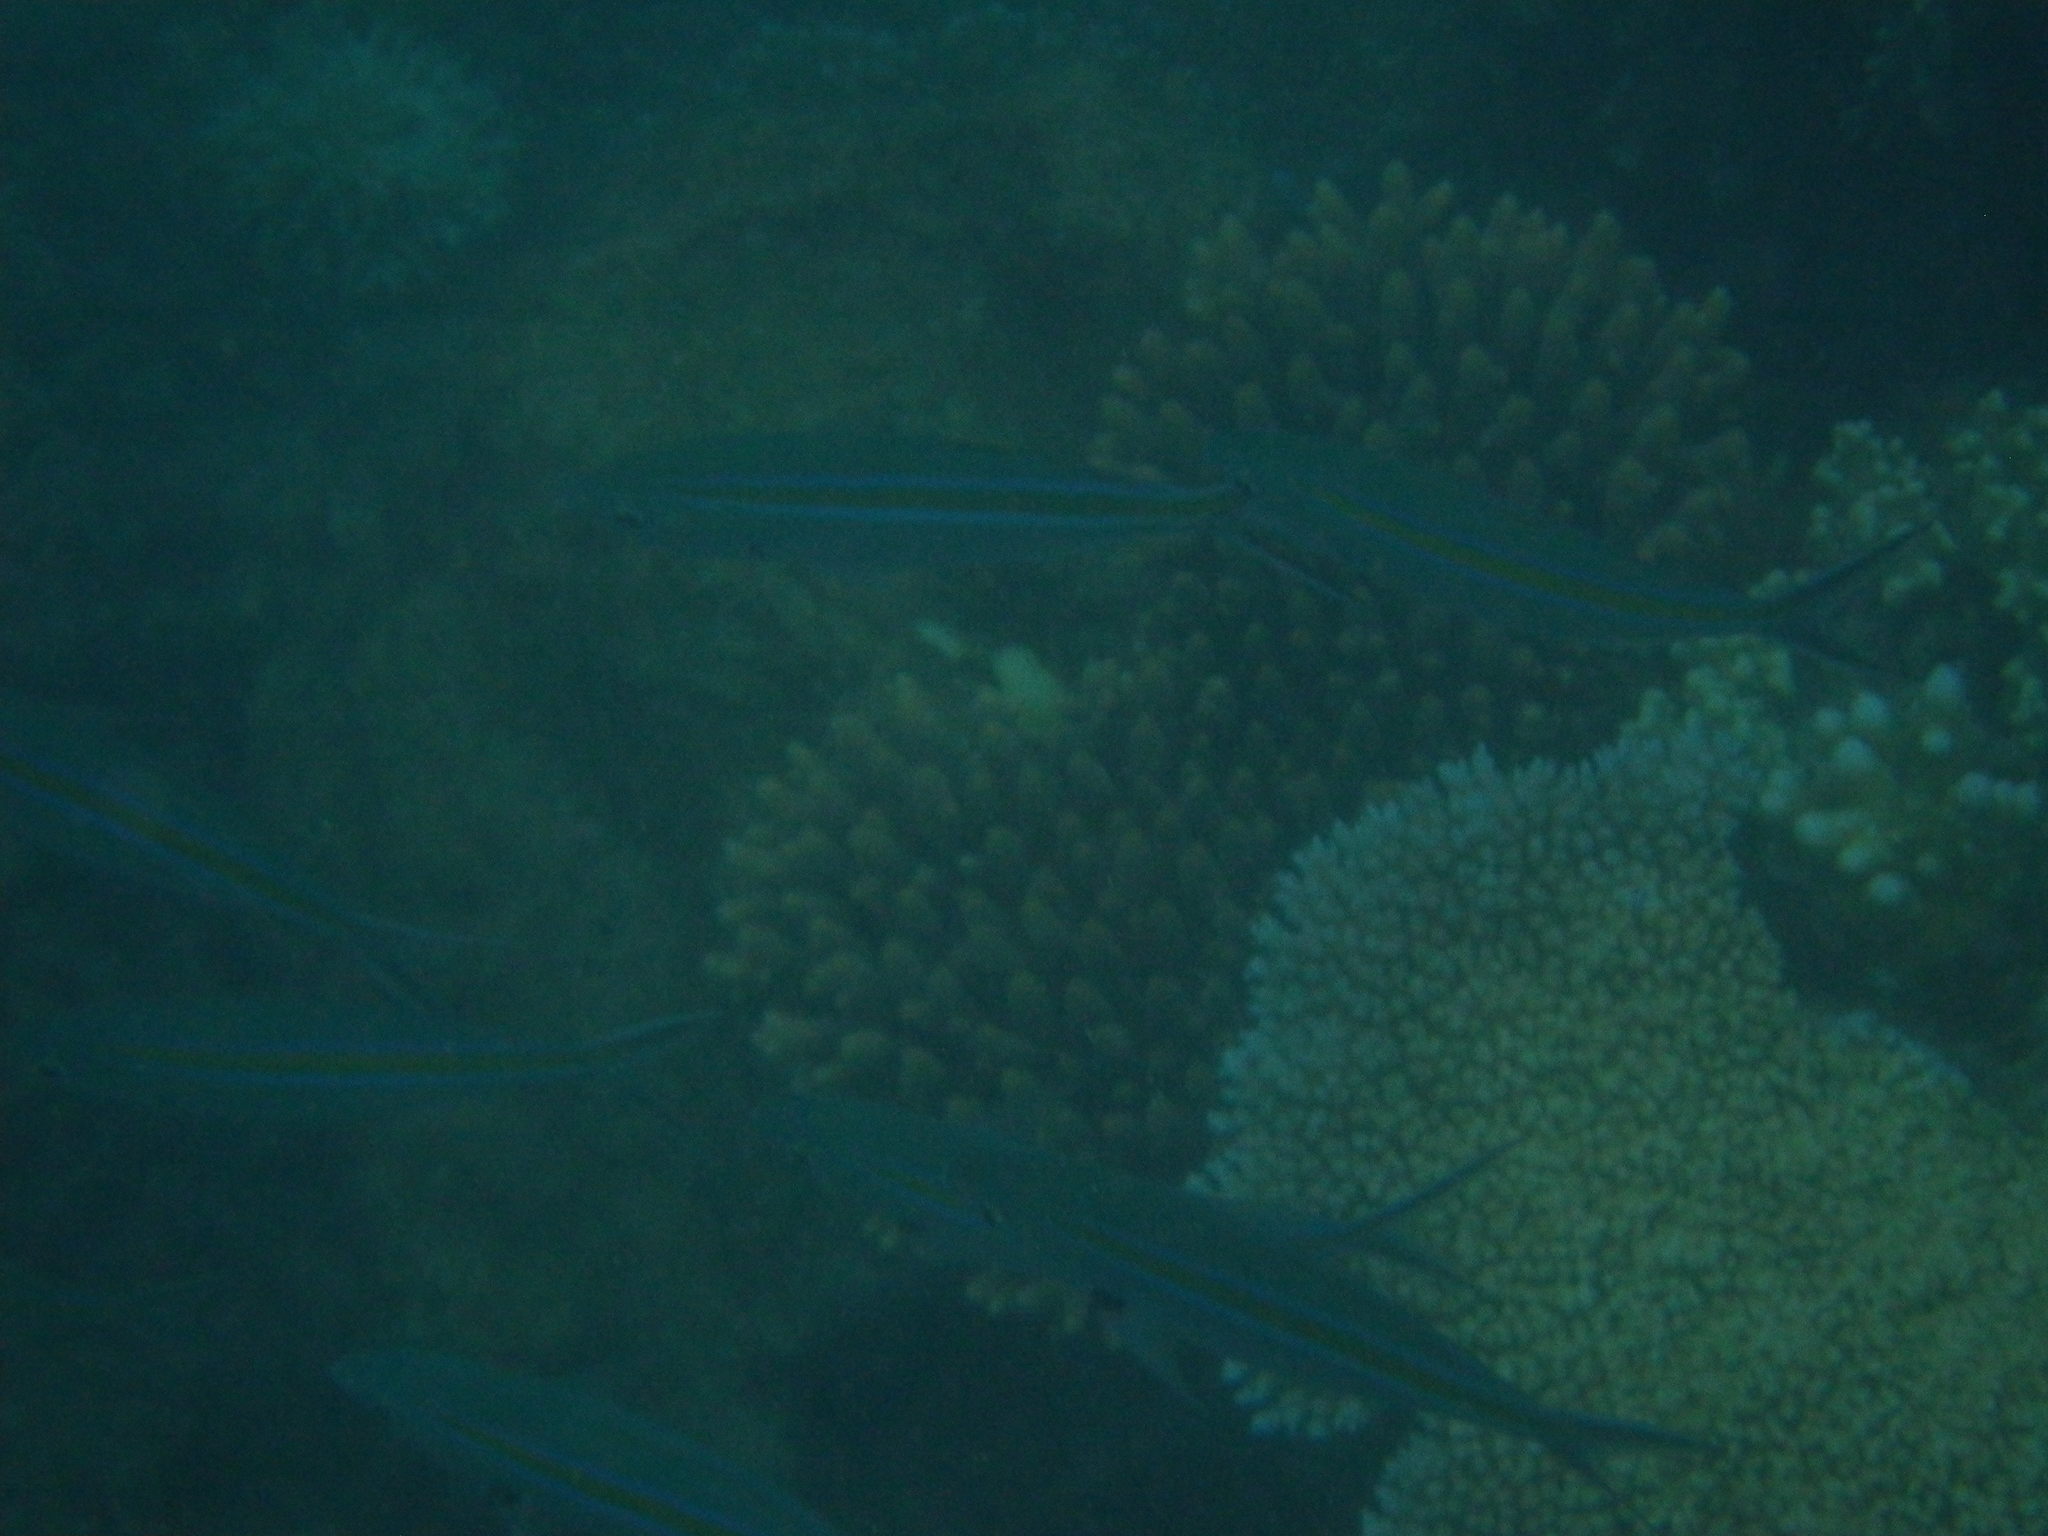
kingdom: Animalia
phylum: Chordata
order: Perciformes
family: Caesionidae
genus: Caesio
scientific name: Caesio caerulaurea
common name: Blue and gold fusilier
